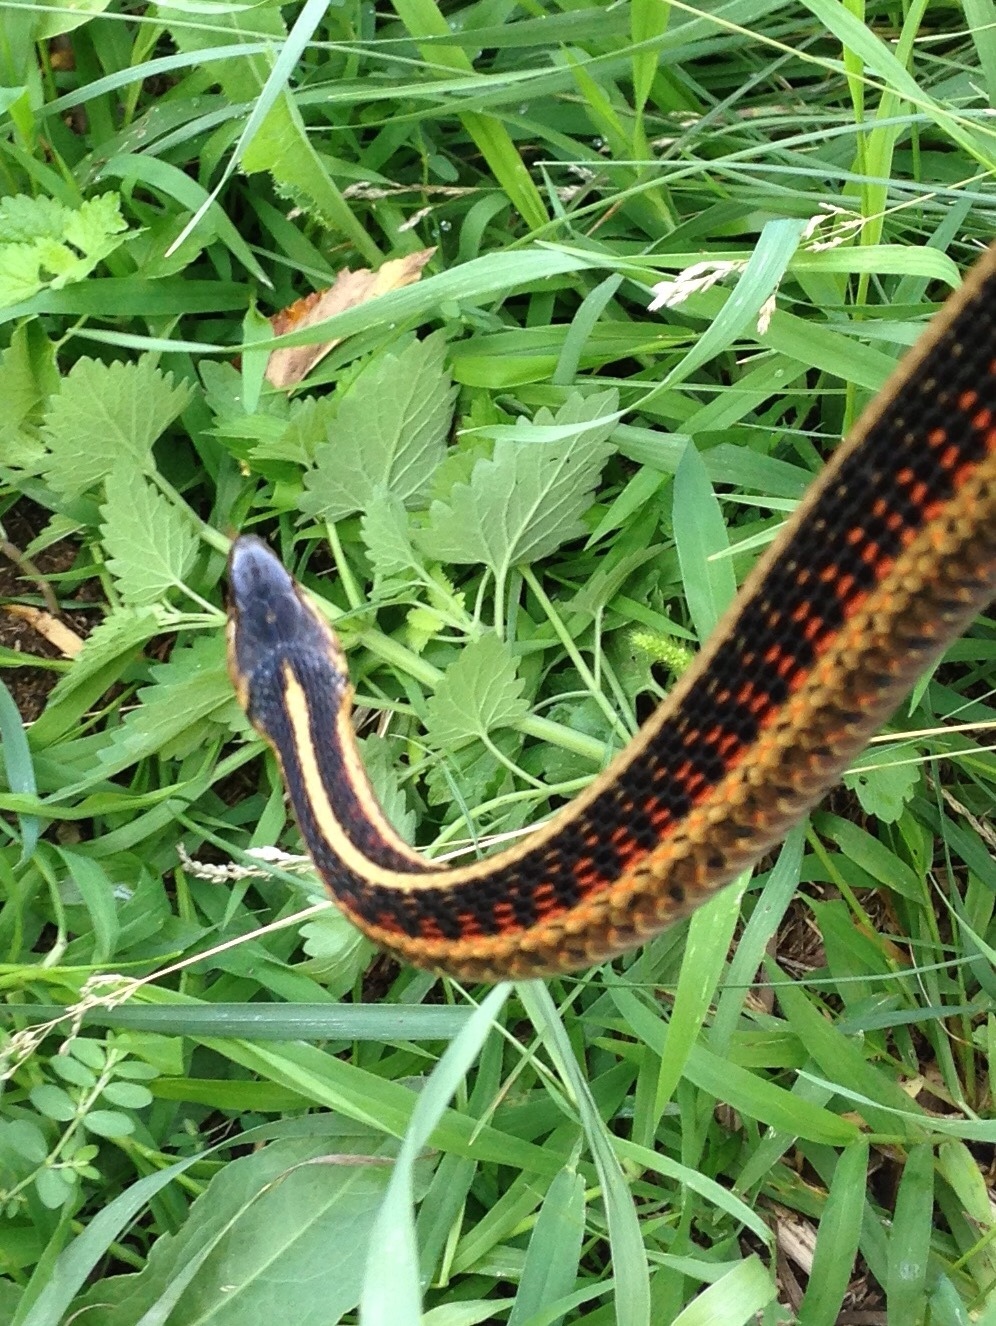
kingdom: Animalia
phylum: Chordata
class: Squamata
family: Colubridae
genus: Thamnophis
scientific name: Thamnophis sirtalis
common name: Common garter snake
